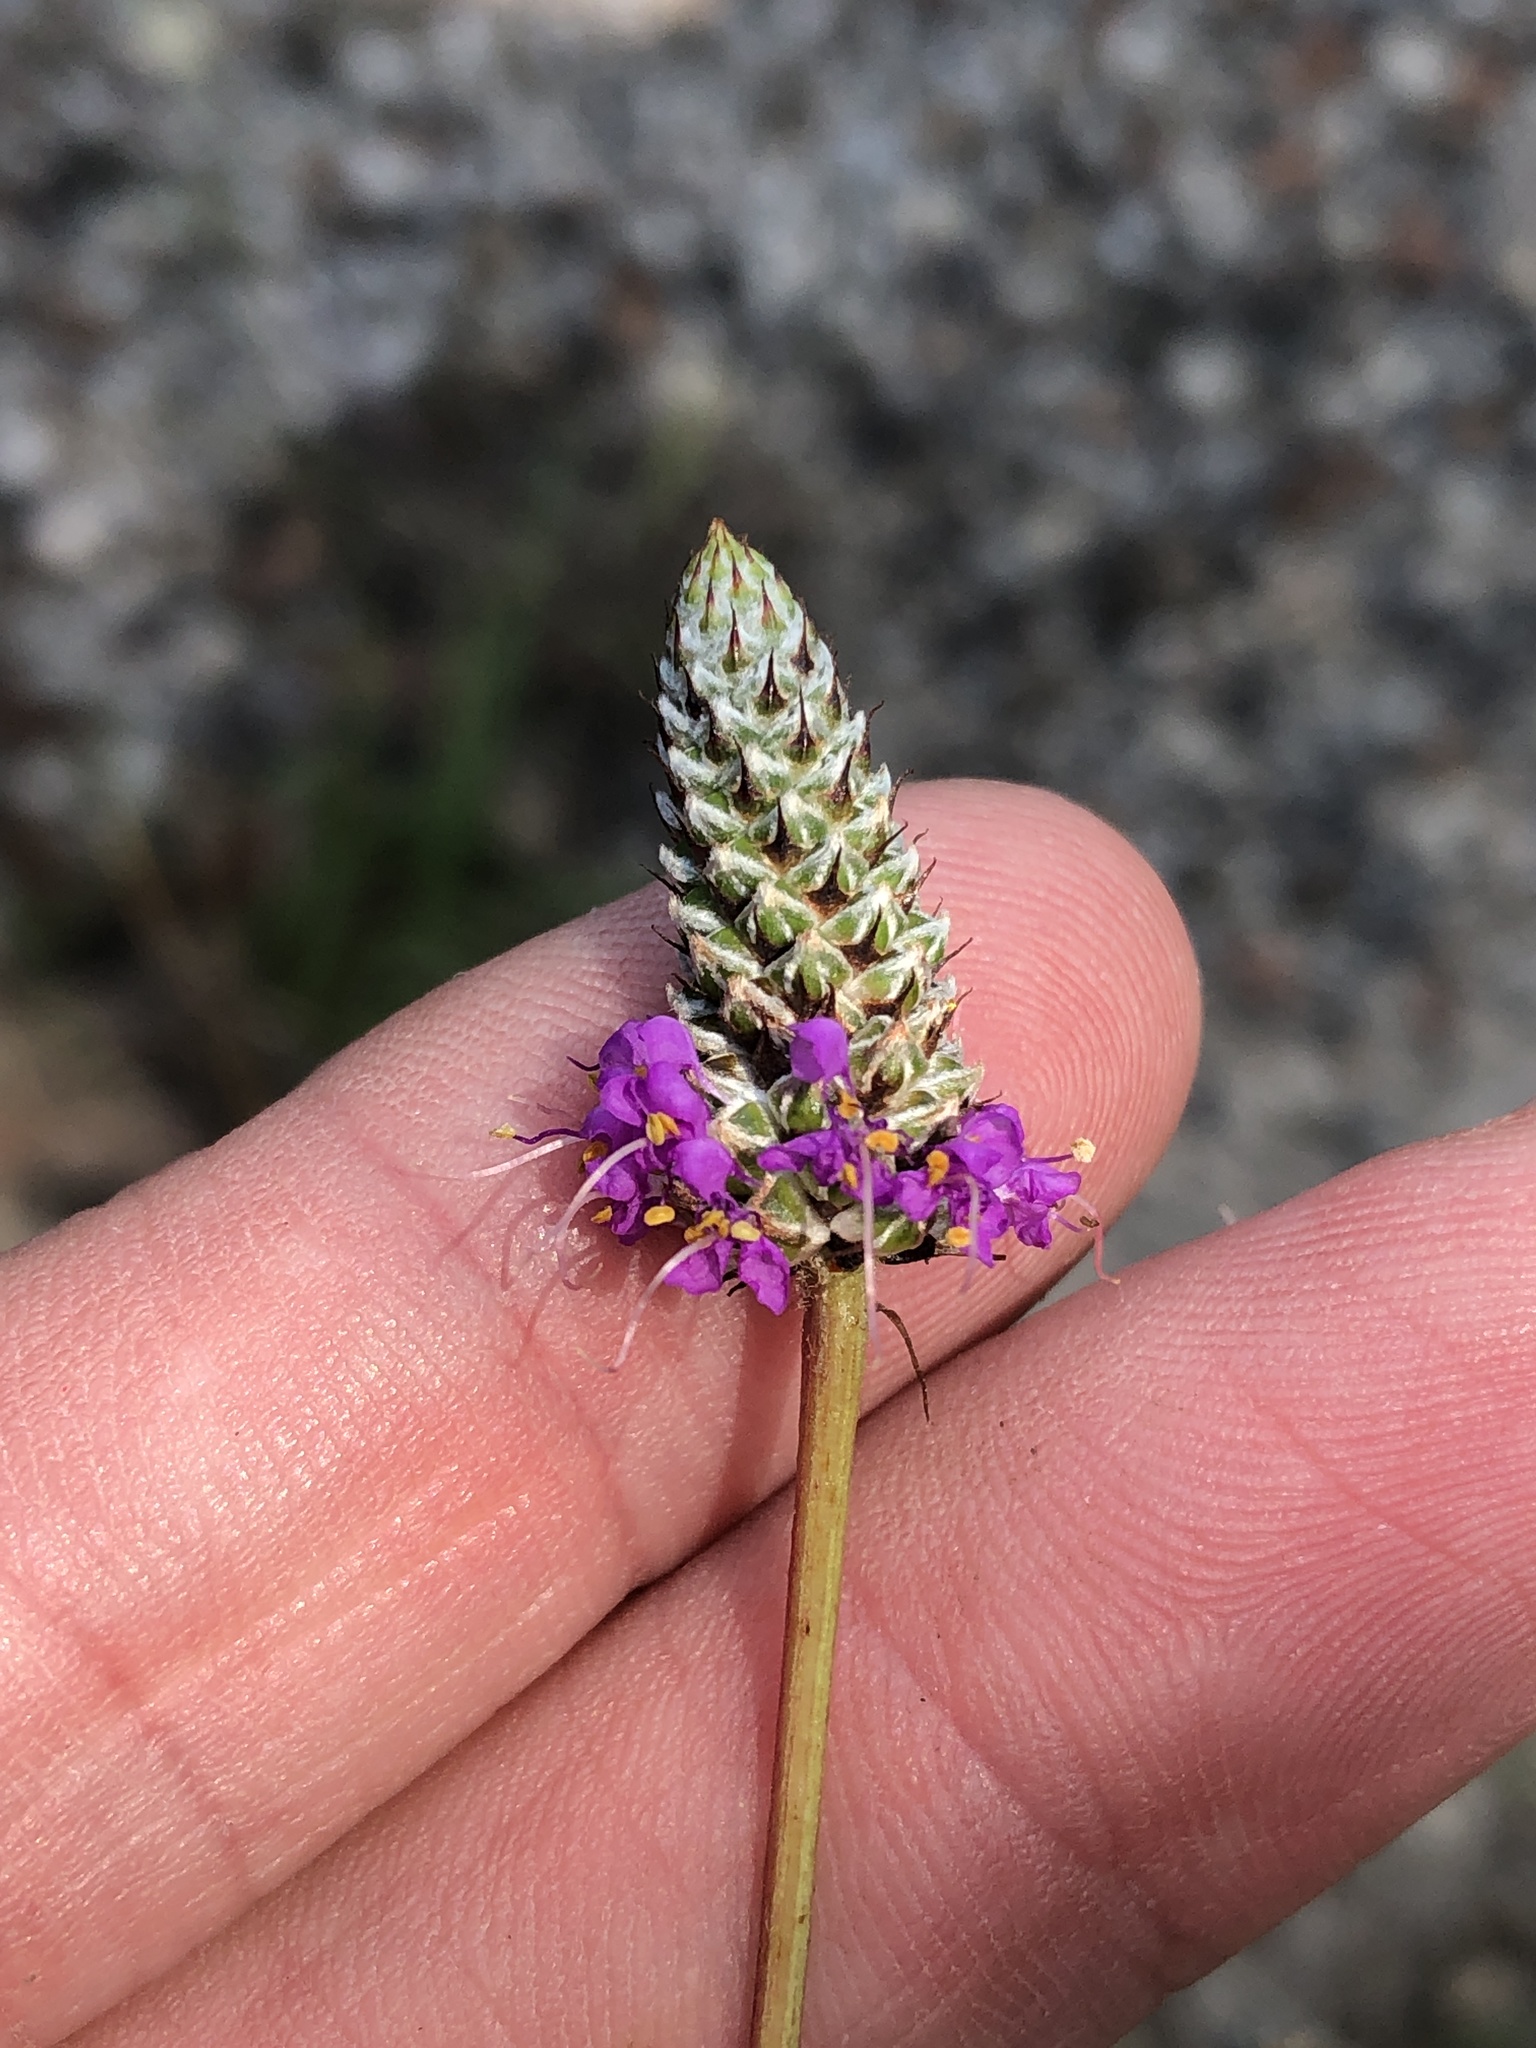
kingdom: Plantae
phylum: Tracheophyta
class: Magnoliopsida
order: Fabales
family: Fabaceae
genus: Dalea
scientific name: Dalea tenuis
